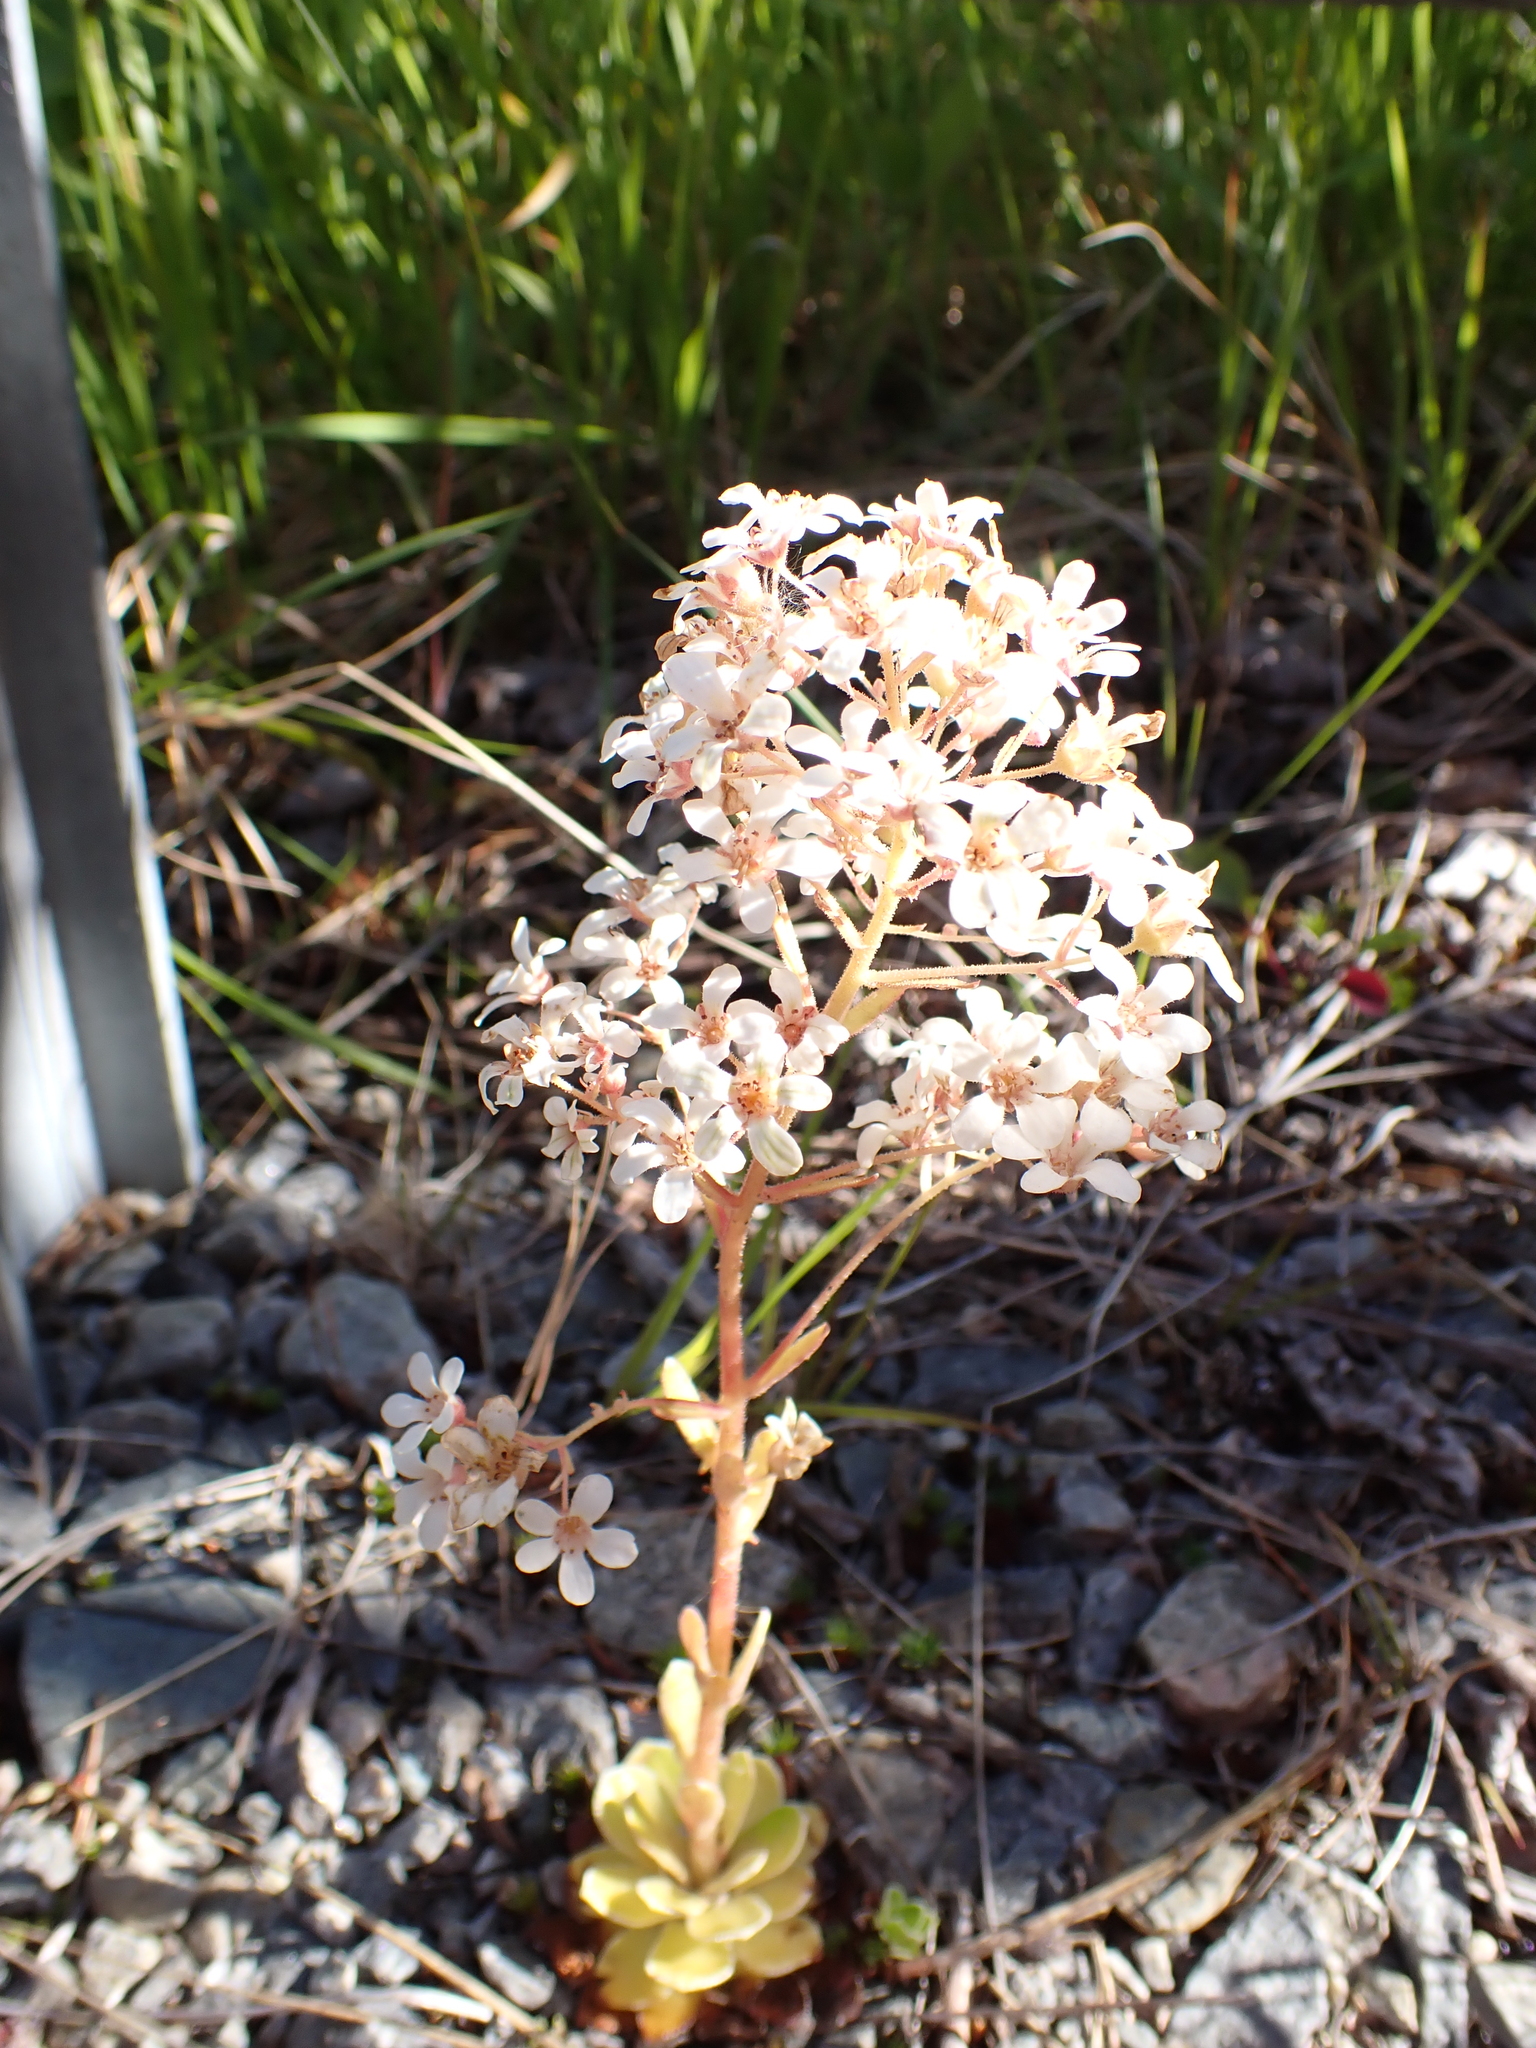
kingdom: Plantae
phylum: Tracheophyta
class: Magnoliopsida
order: Saxifragales
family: Saxifragaceae
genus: Saxifraga
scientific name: Saxifraga cotyledon
